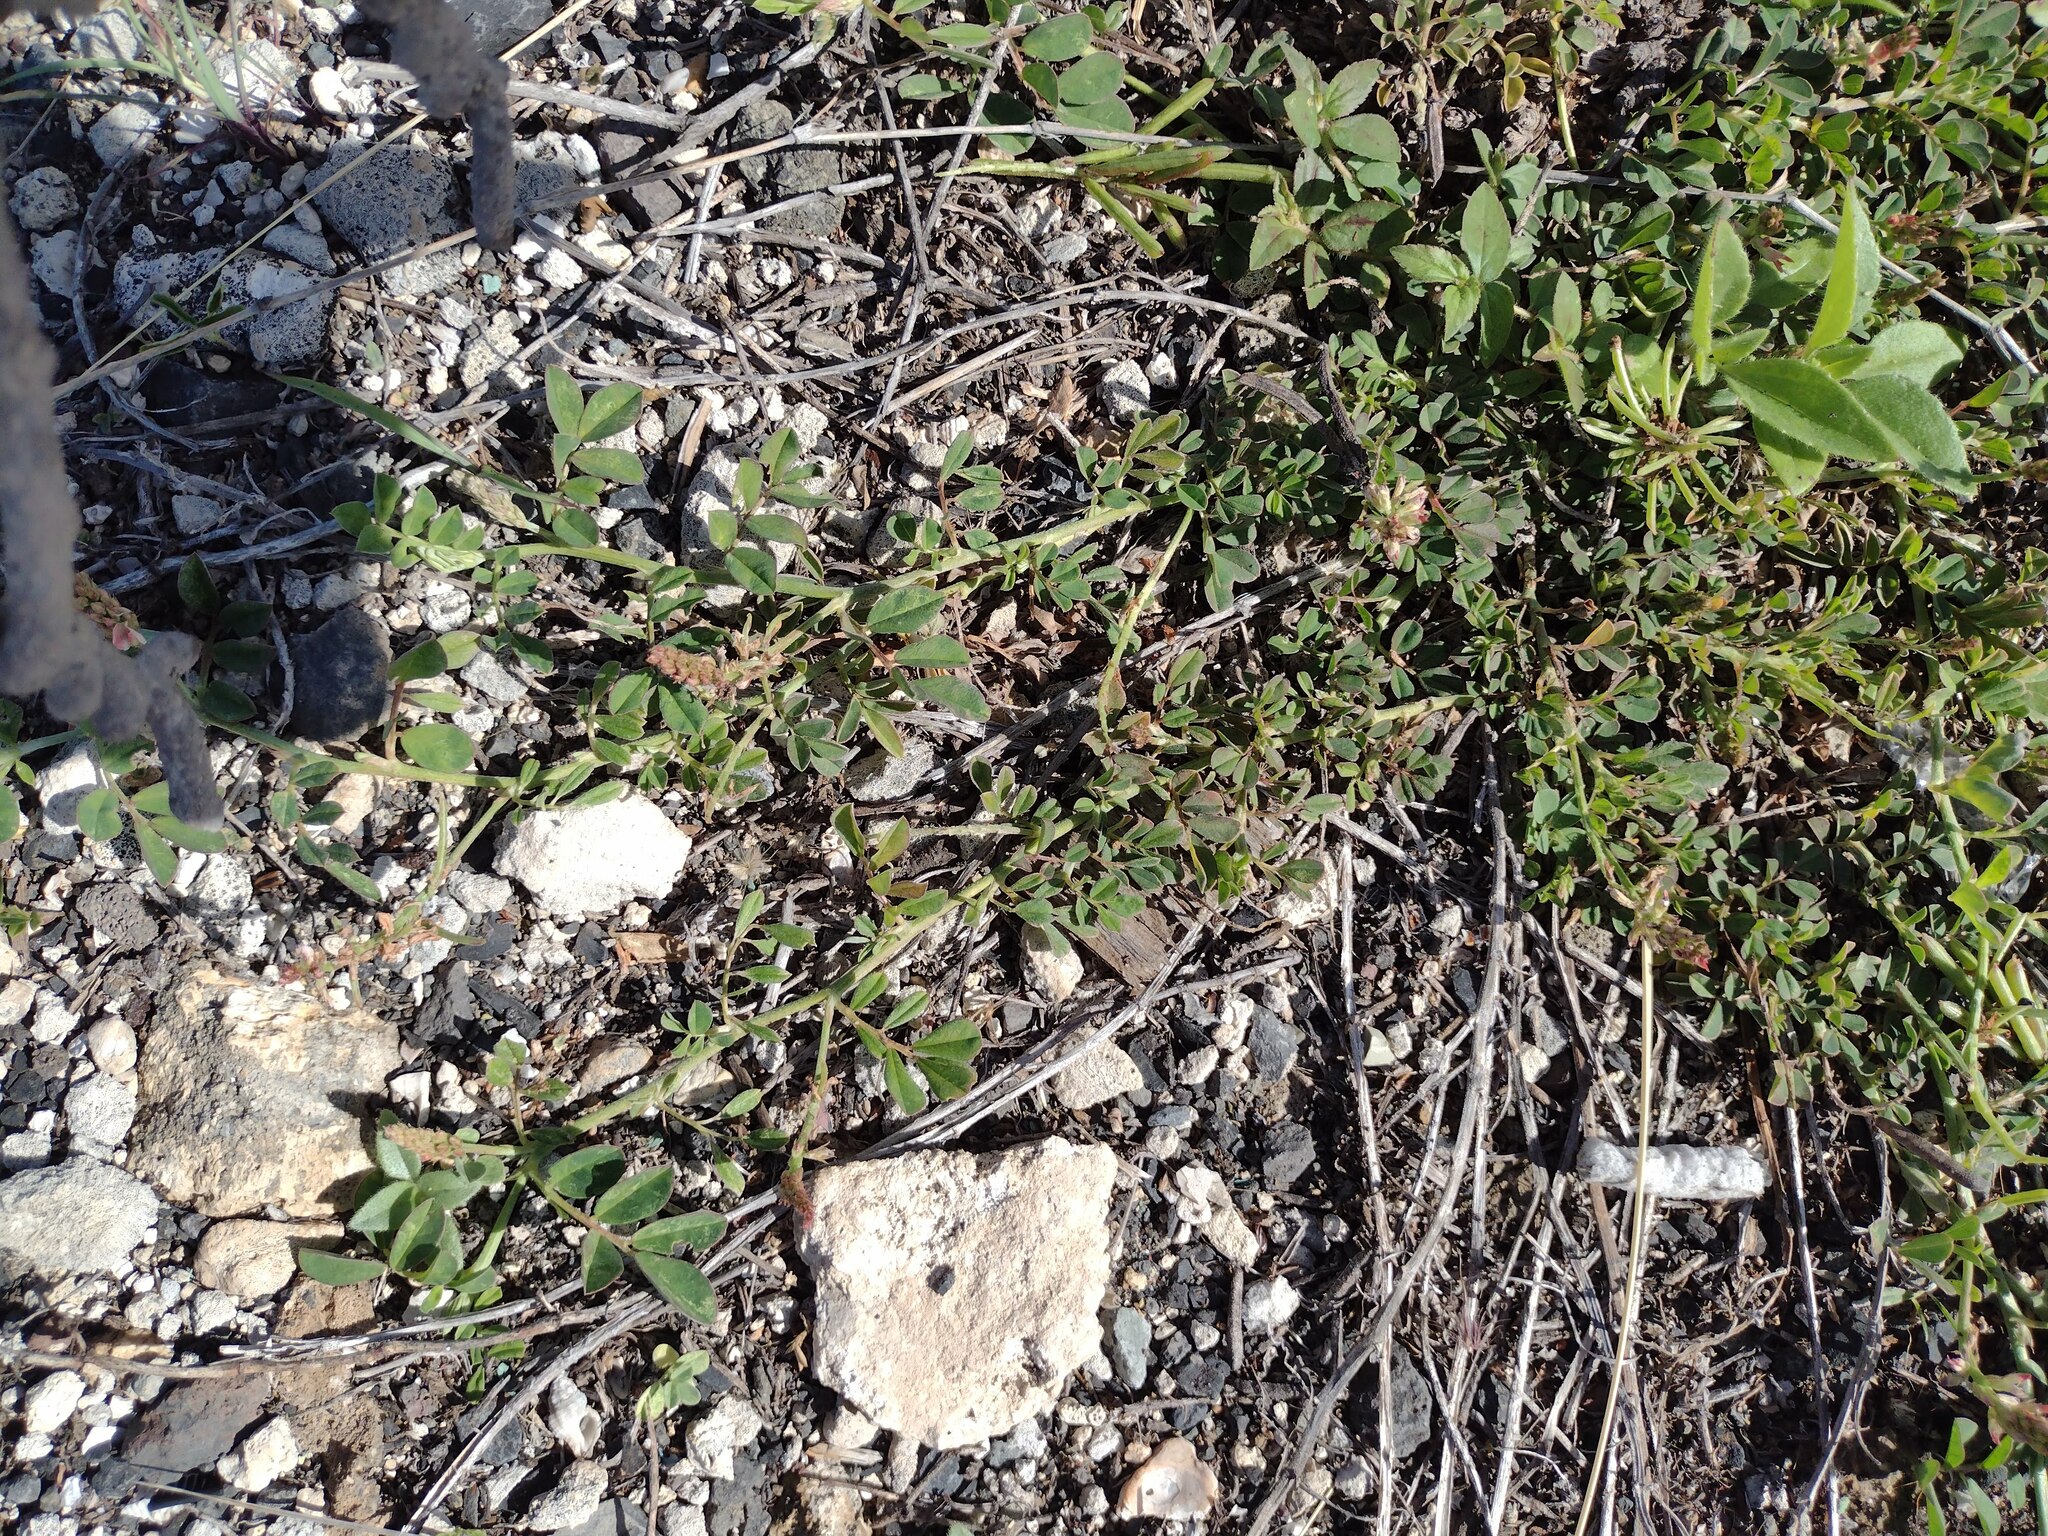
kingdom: Plantae
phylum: Tracheophyta
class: Magnoliopsida
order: Fabales
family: Fabaceae
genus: Indigofera
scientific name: Indigofera spicata
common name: Creeping indigo
